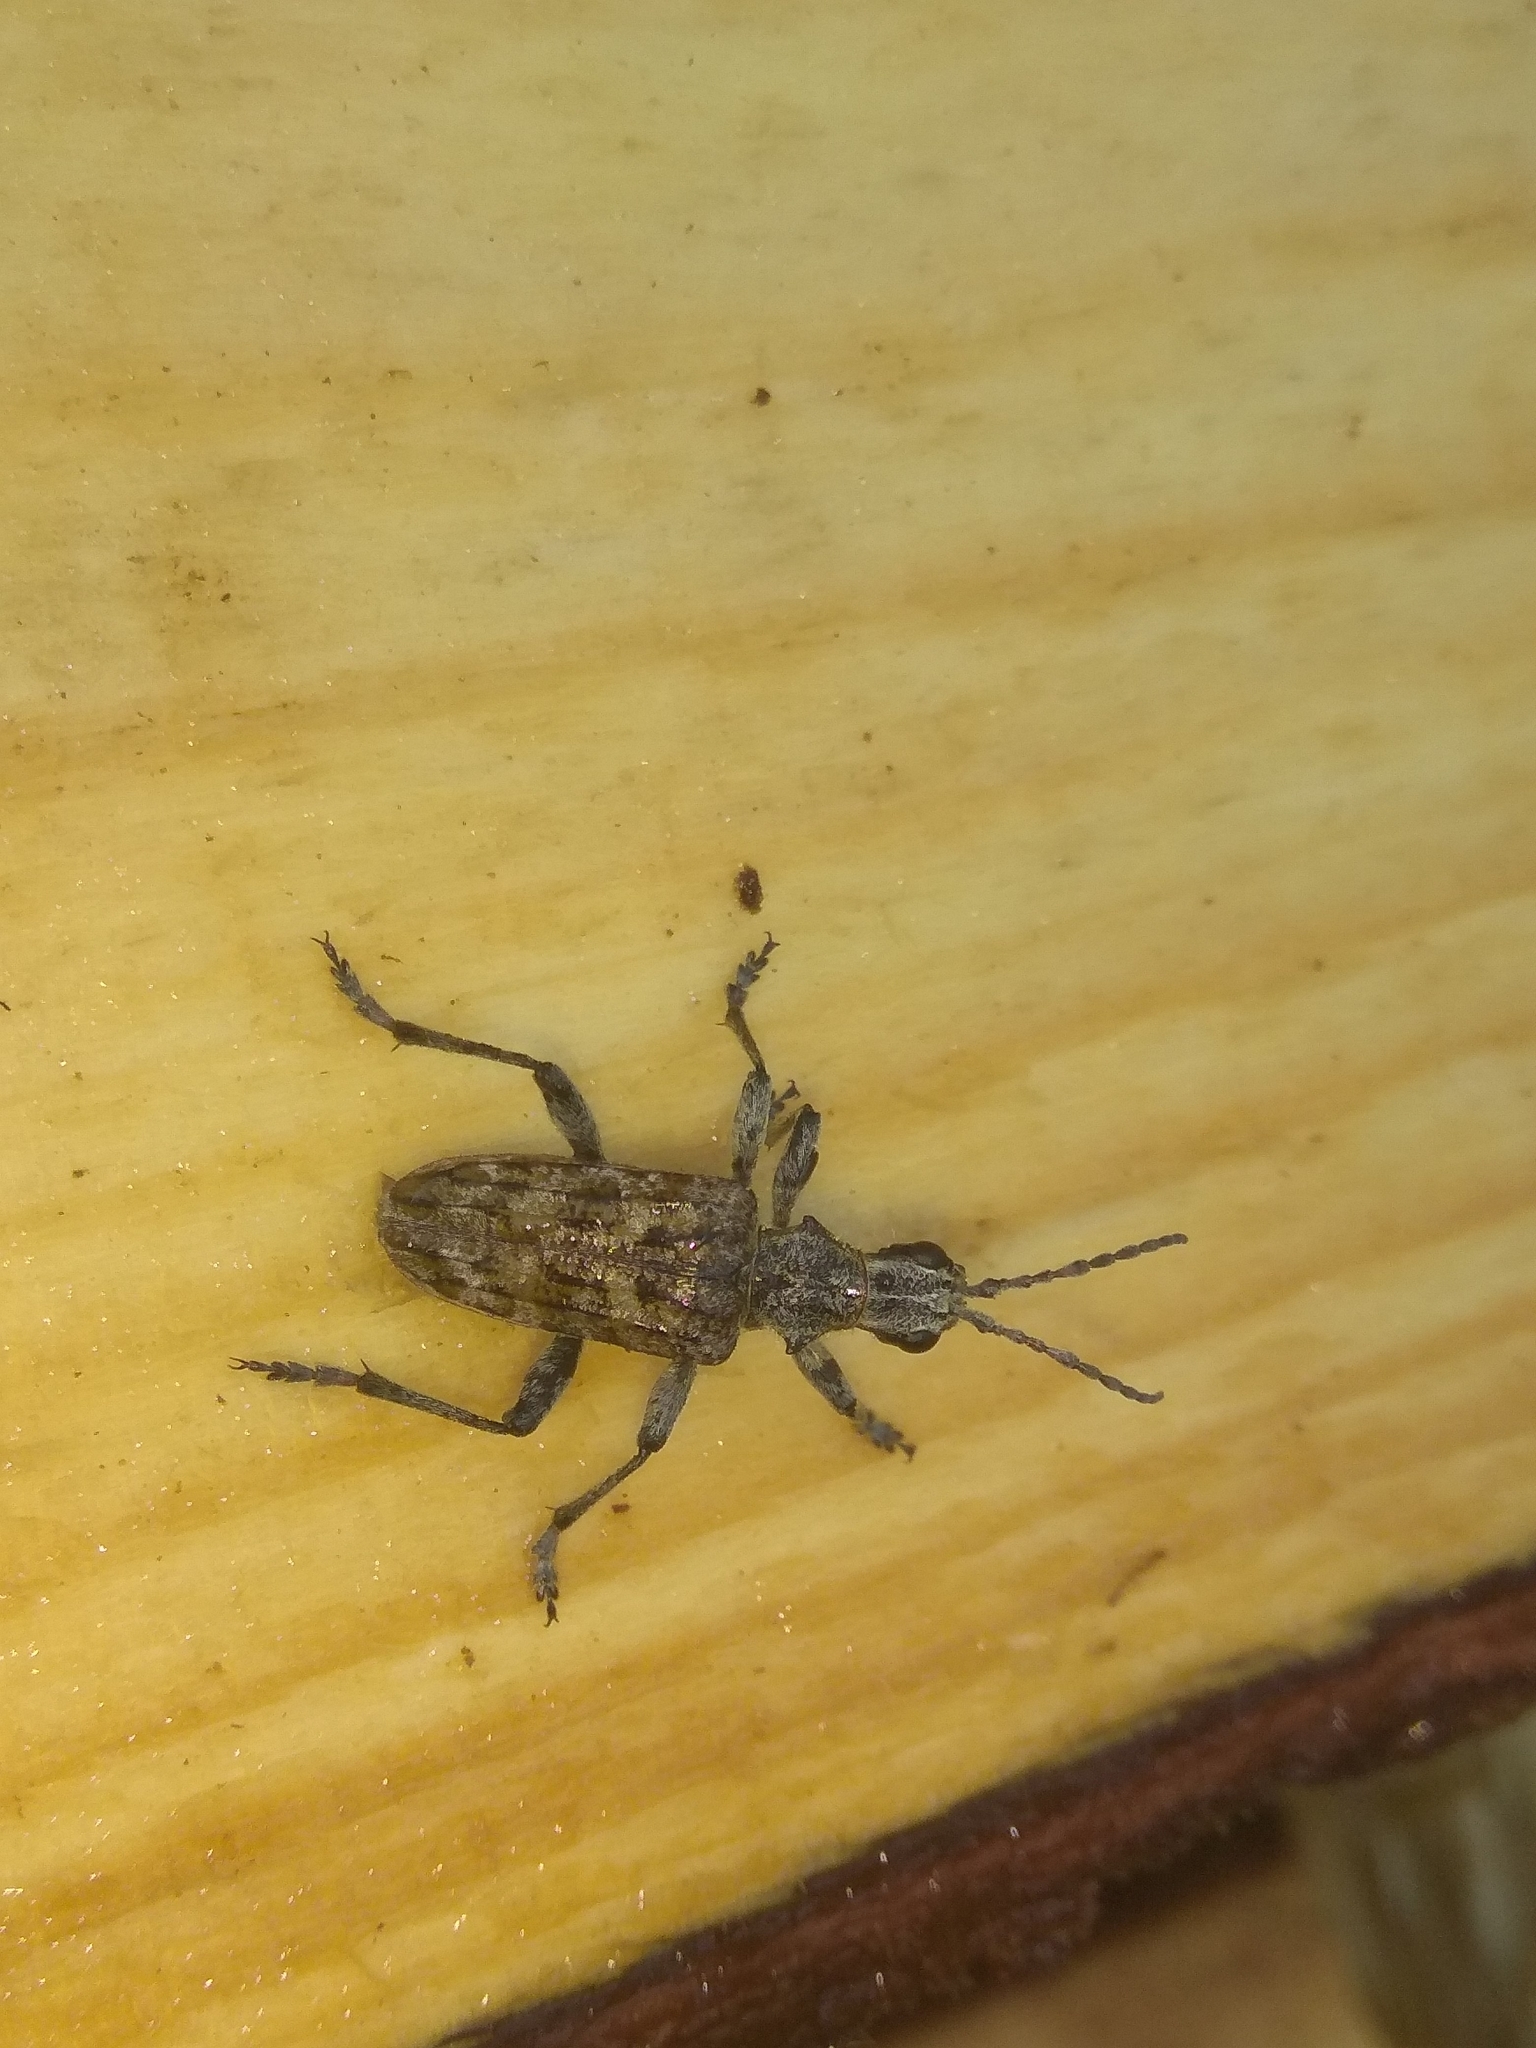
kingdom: Animalia
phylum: Arthropoda
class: Insecta
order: Coleoptera
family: Cerambycidae
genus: Rhagium
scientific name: Rhagium inquisitor
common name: Ribbed pine borer
